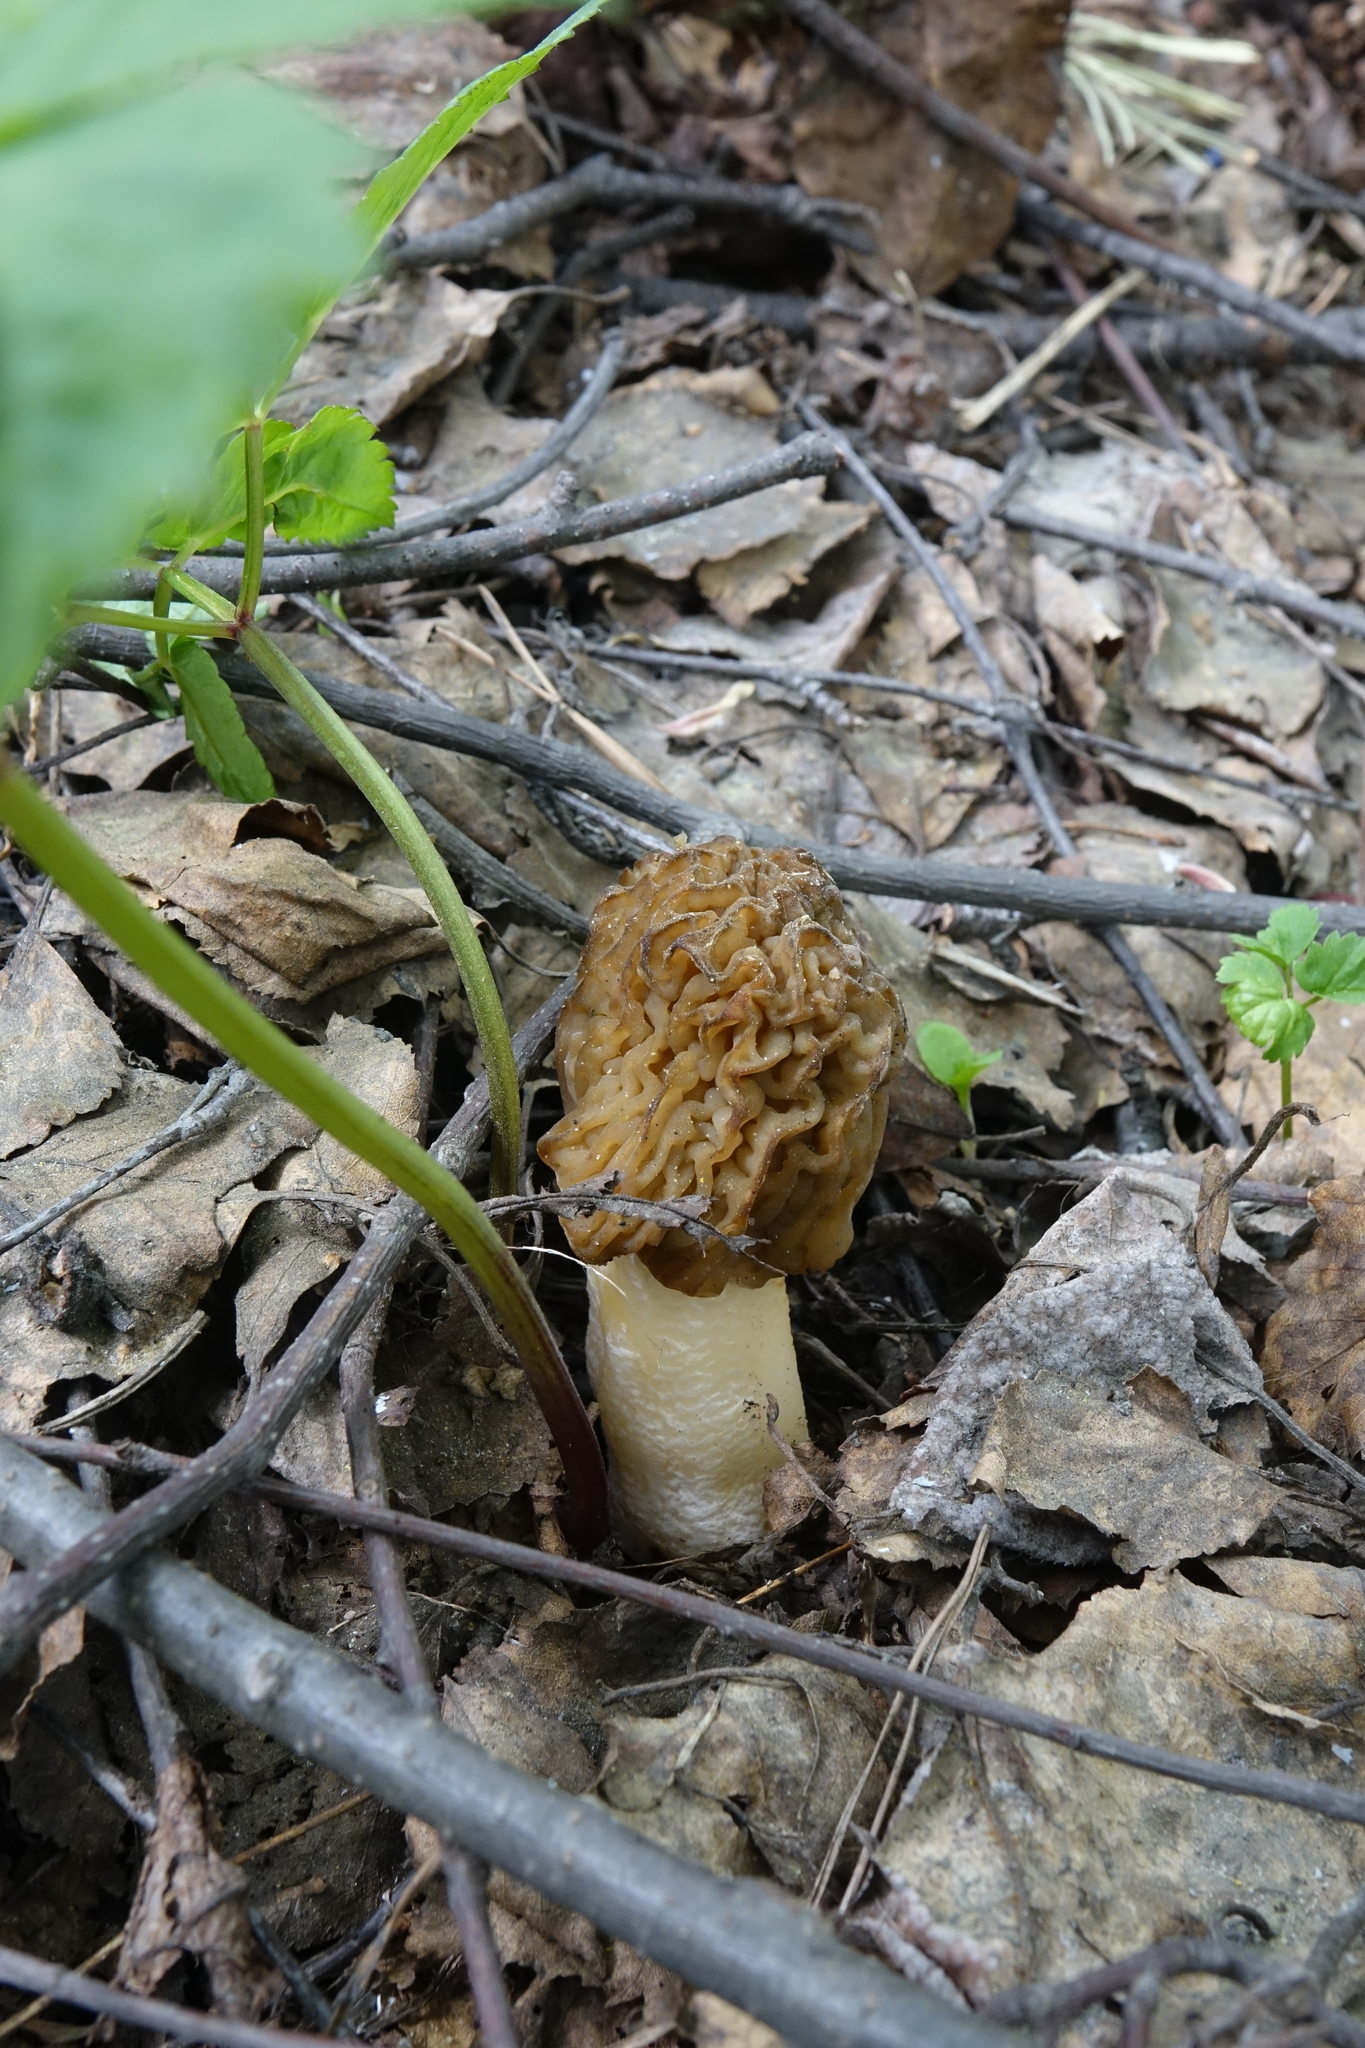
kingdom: Fungi
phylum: Ascomycota
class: Pezizomycetes
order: Pezizales
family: Morchellaceae
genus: Verpa
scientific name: Verpa bohemica
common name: Wrinkled thimble morel
